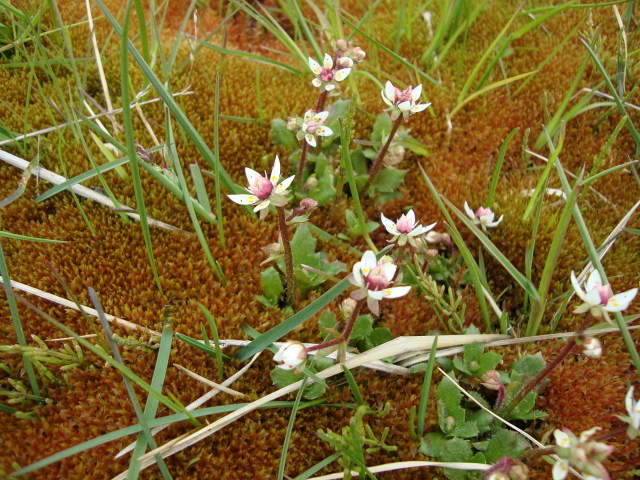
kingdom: Plantae
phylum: Tracheophyta
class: Magnoliopsida
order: Saxifragales
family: Saxifragaceae
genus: Micranthes
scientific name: Micranthes stellaris
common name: Starry saxifrage
